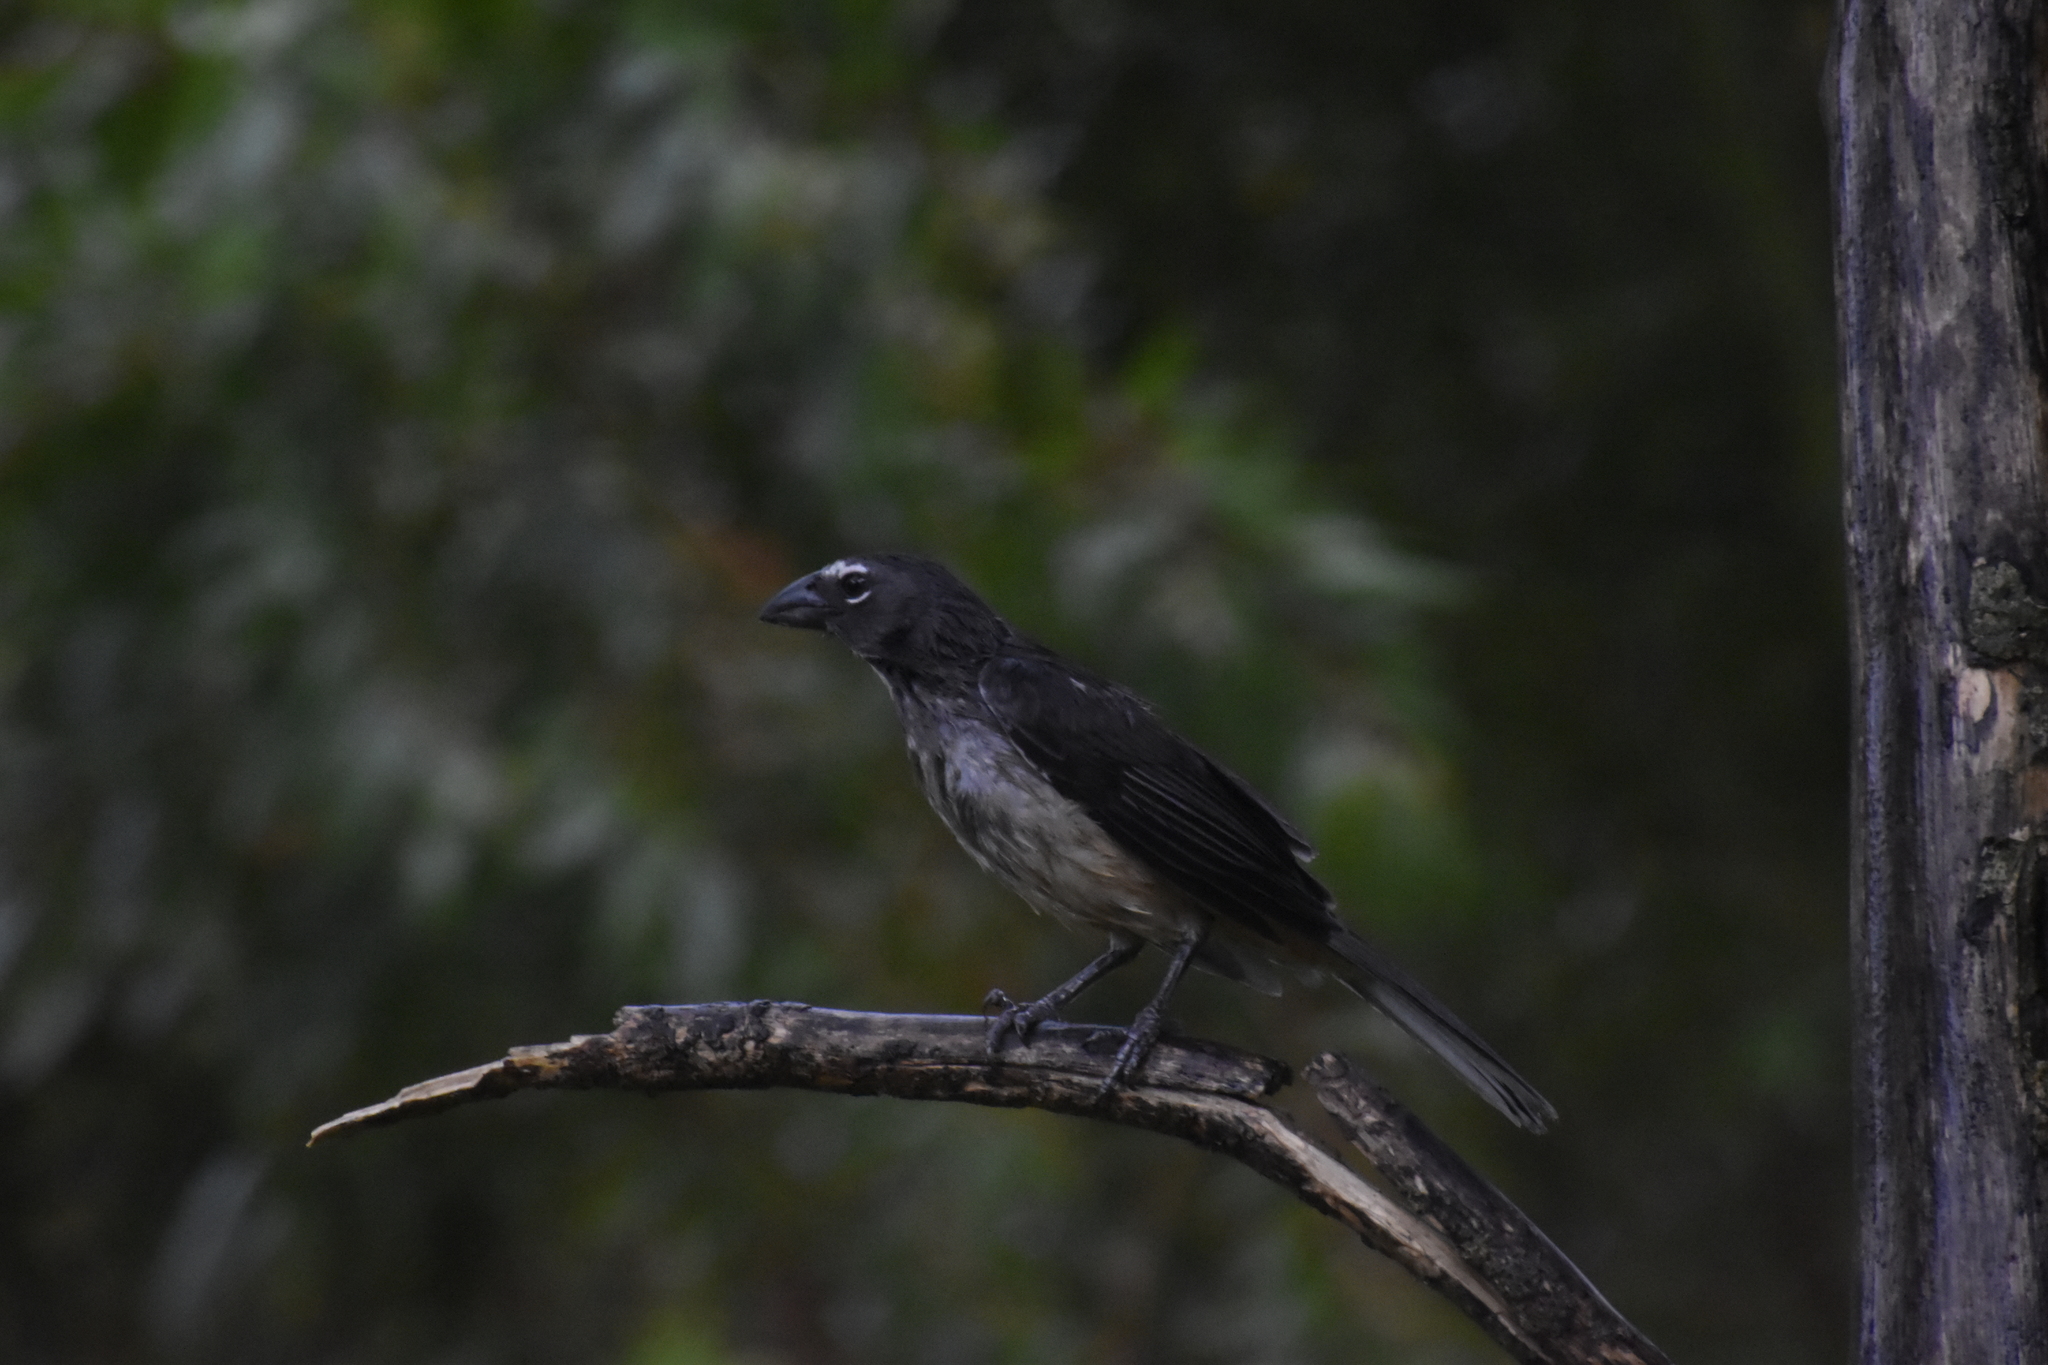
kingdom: Animalia
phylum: Chordata
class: Aves
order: Passeriformes
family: Thraupidae
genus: Saltator
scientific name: Saltator olivascens
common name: Caribbean grey saltator
